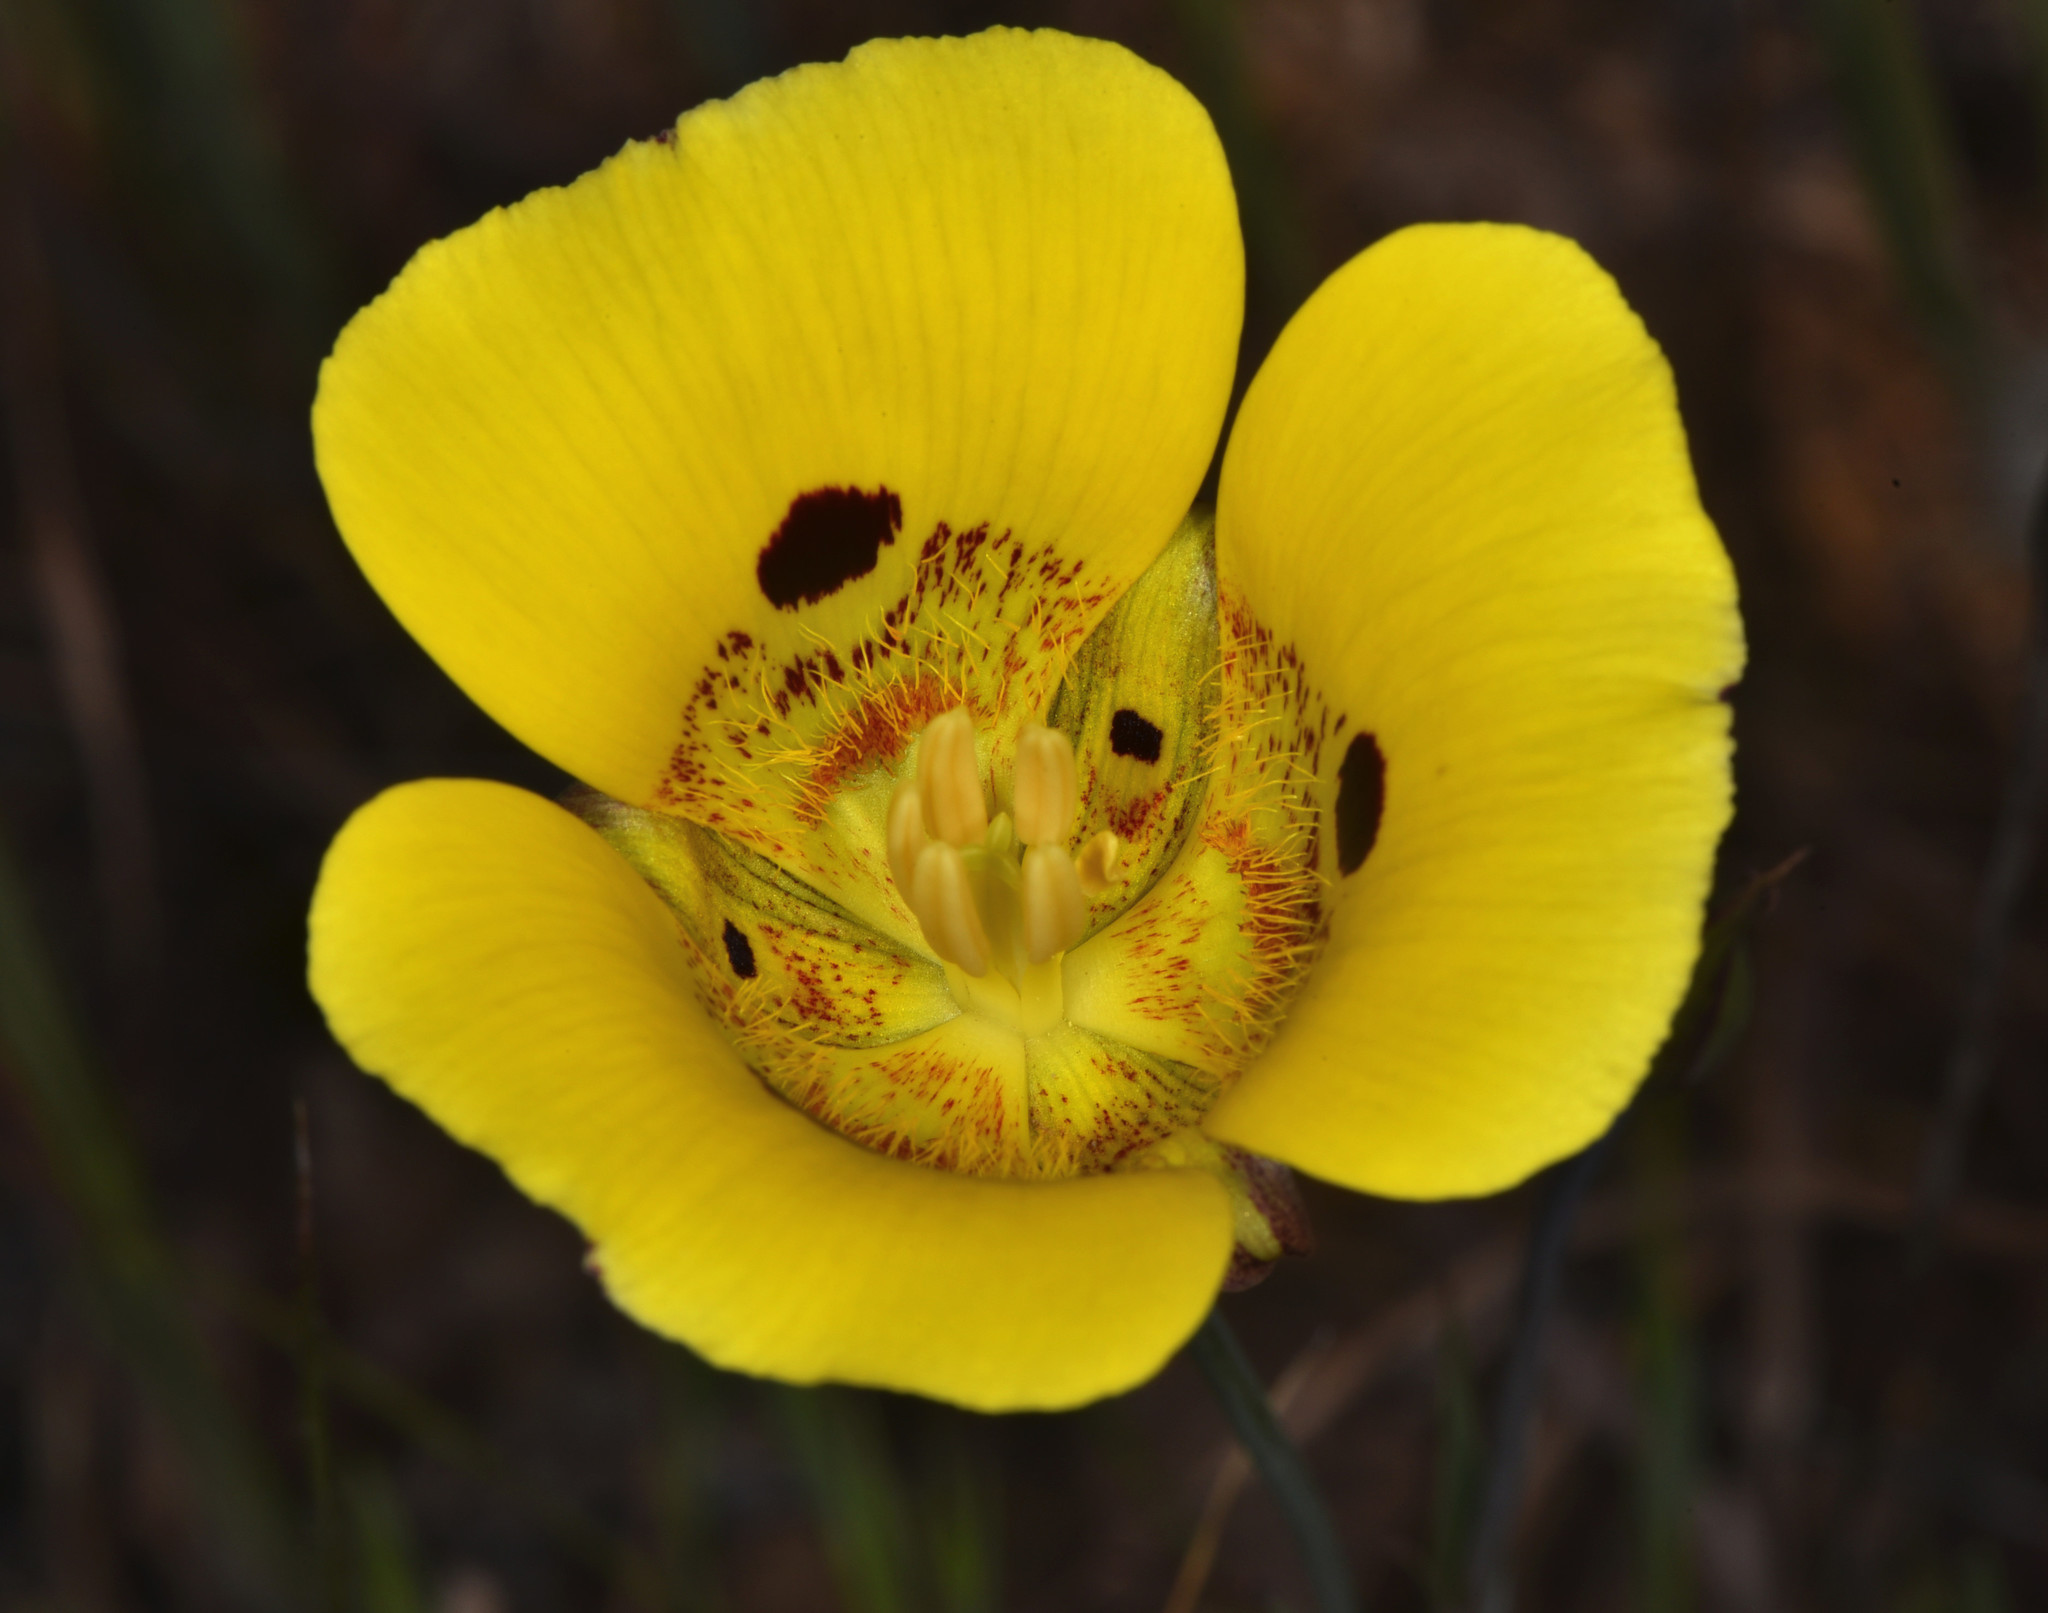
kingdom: Plantae
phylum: Tracheophyta
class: Liliopsida
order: Liliales
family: Liliaceae
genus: Calochortus
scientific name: Calochortus luteus
